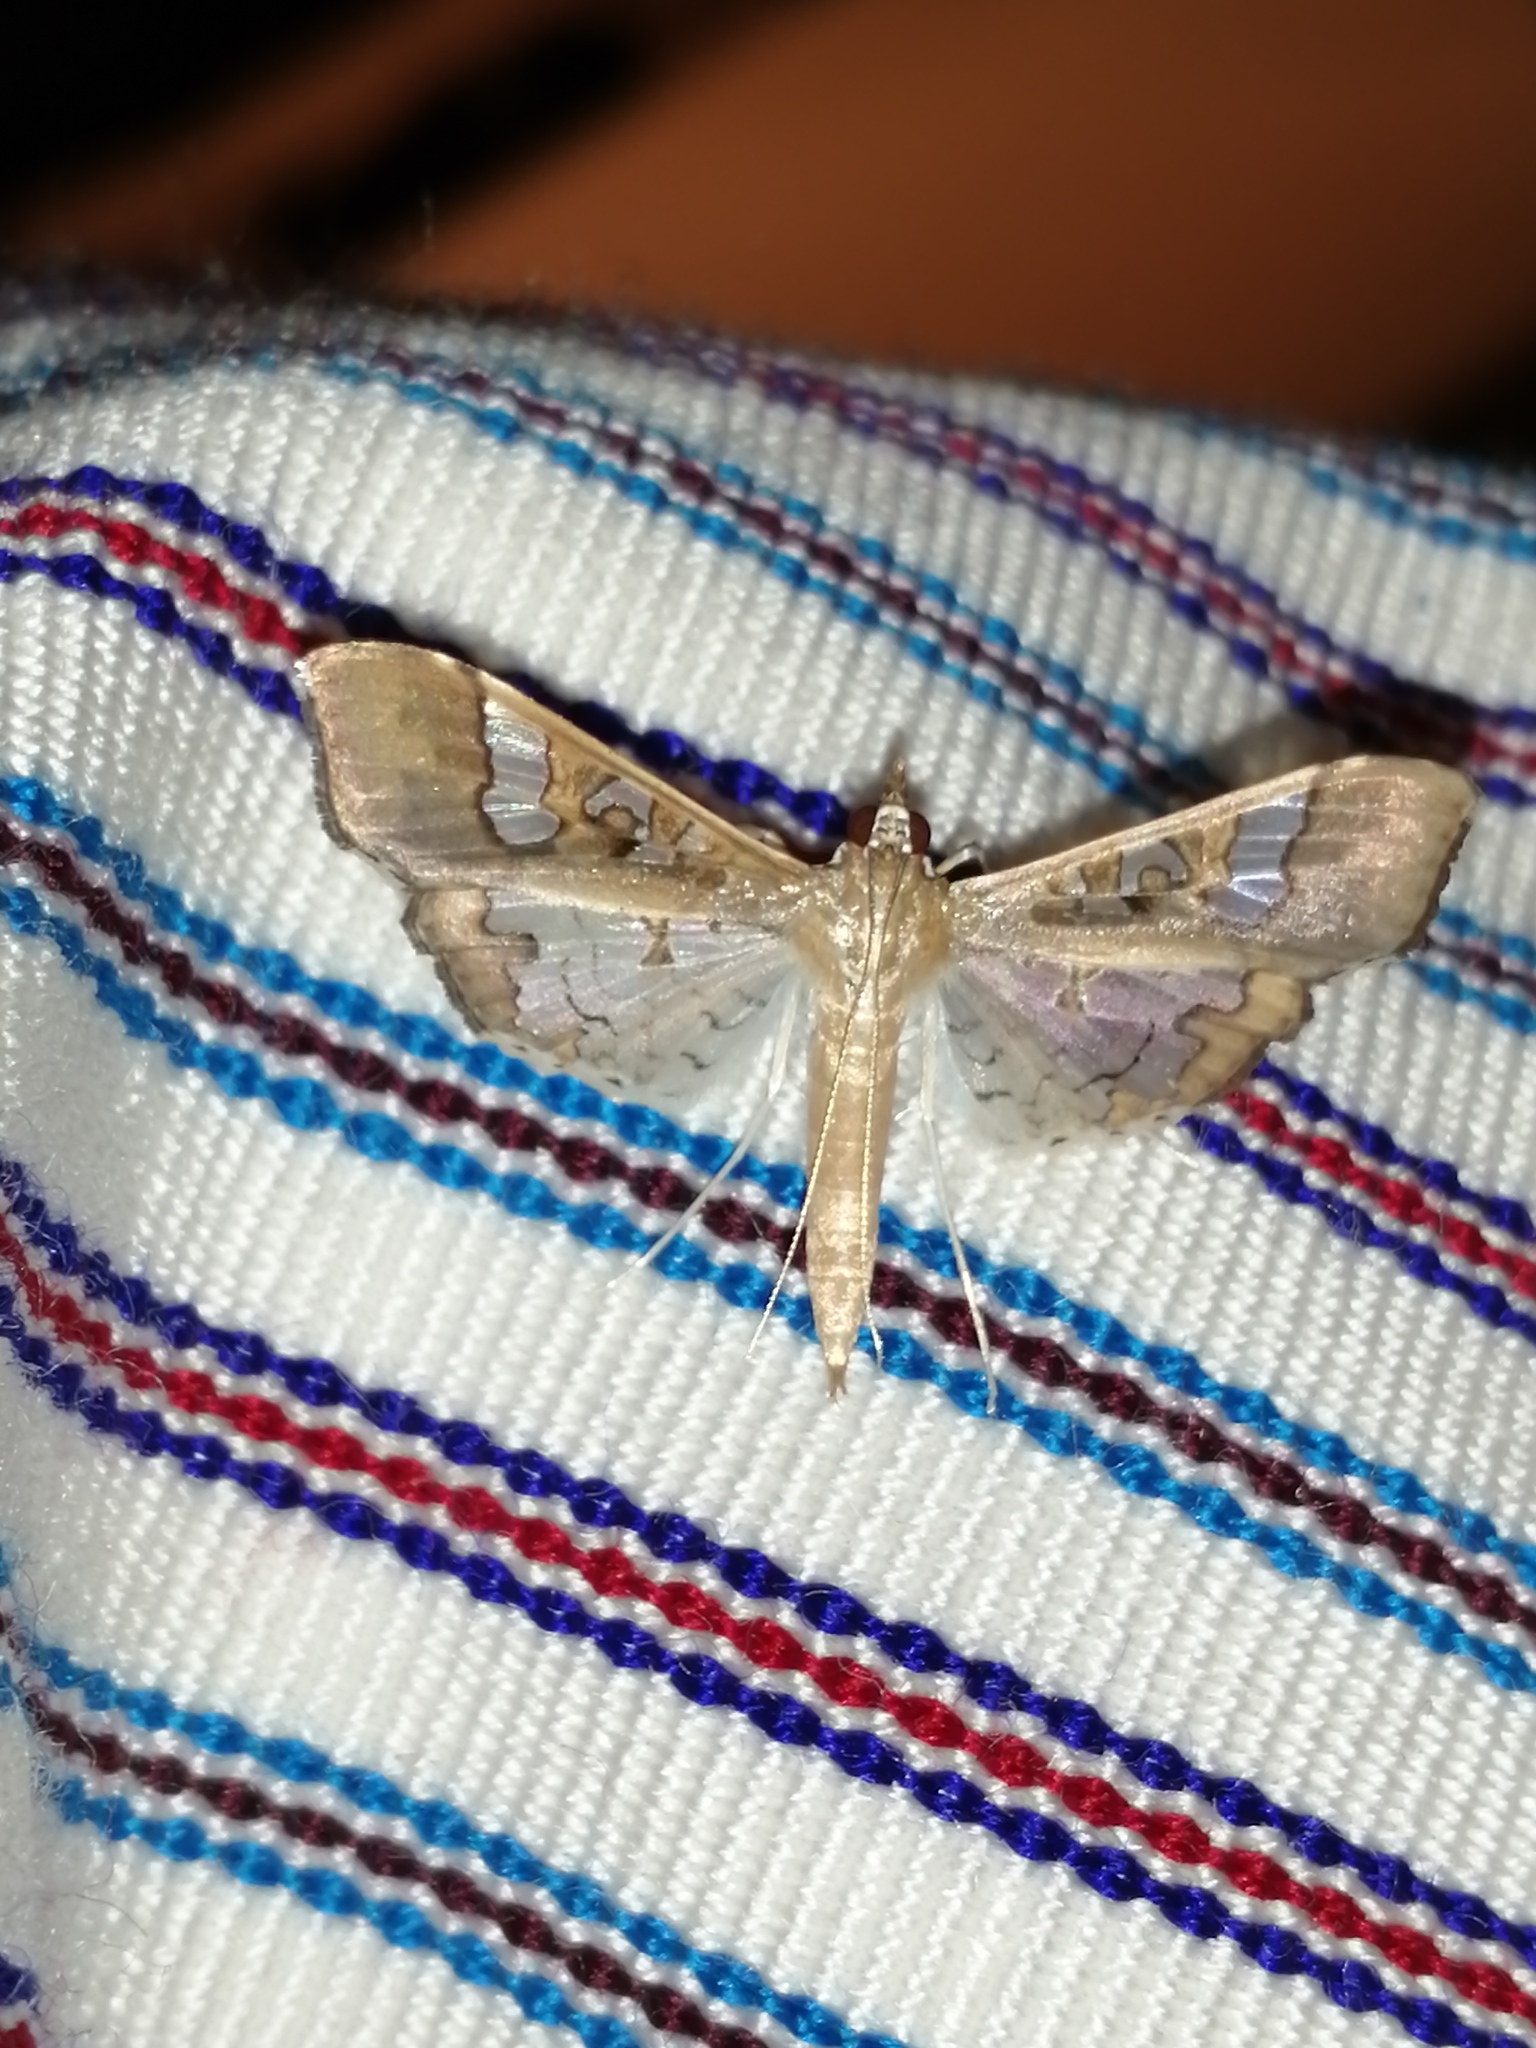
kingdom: Animalia
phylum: Arthropoda
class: Insecta
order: Lepidoptera
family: Crambidae
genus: Maruca
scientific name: Maruca vitrata
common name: Maruca pod borer
